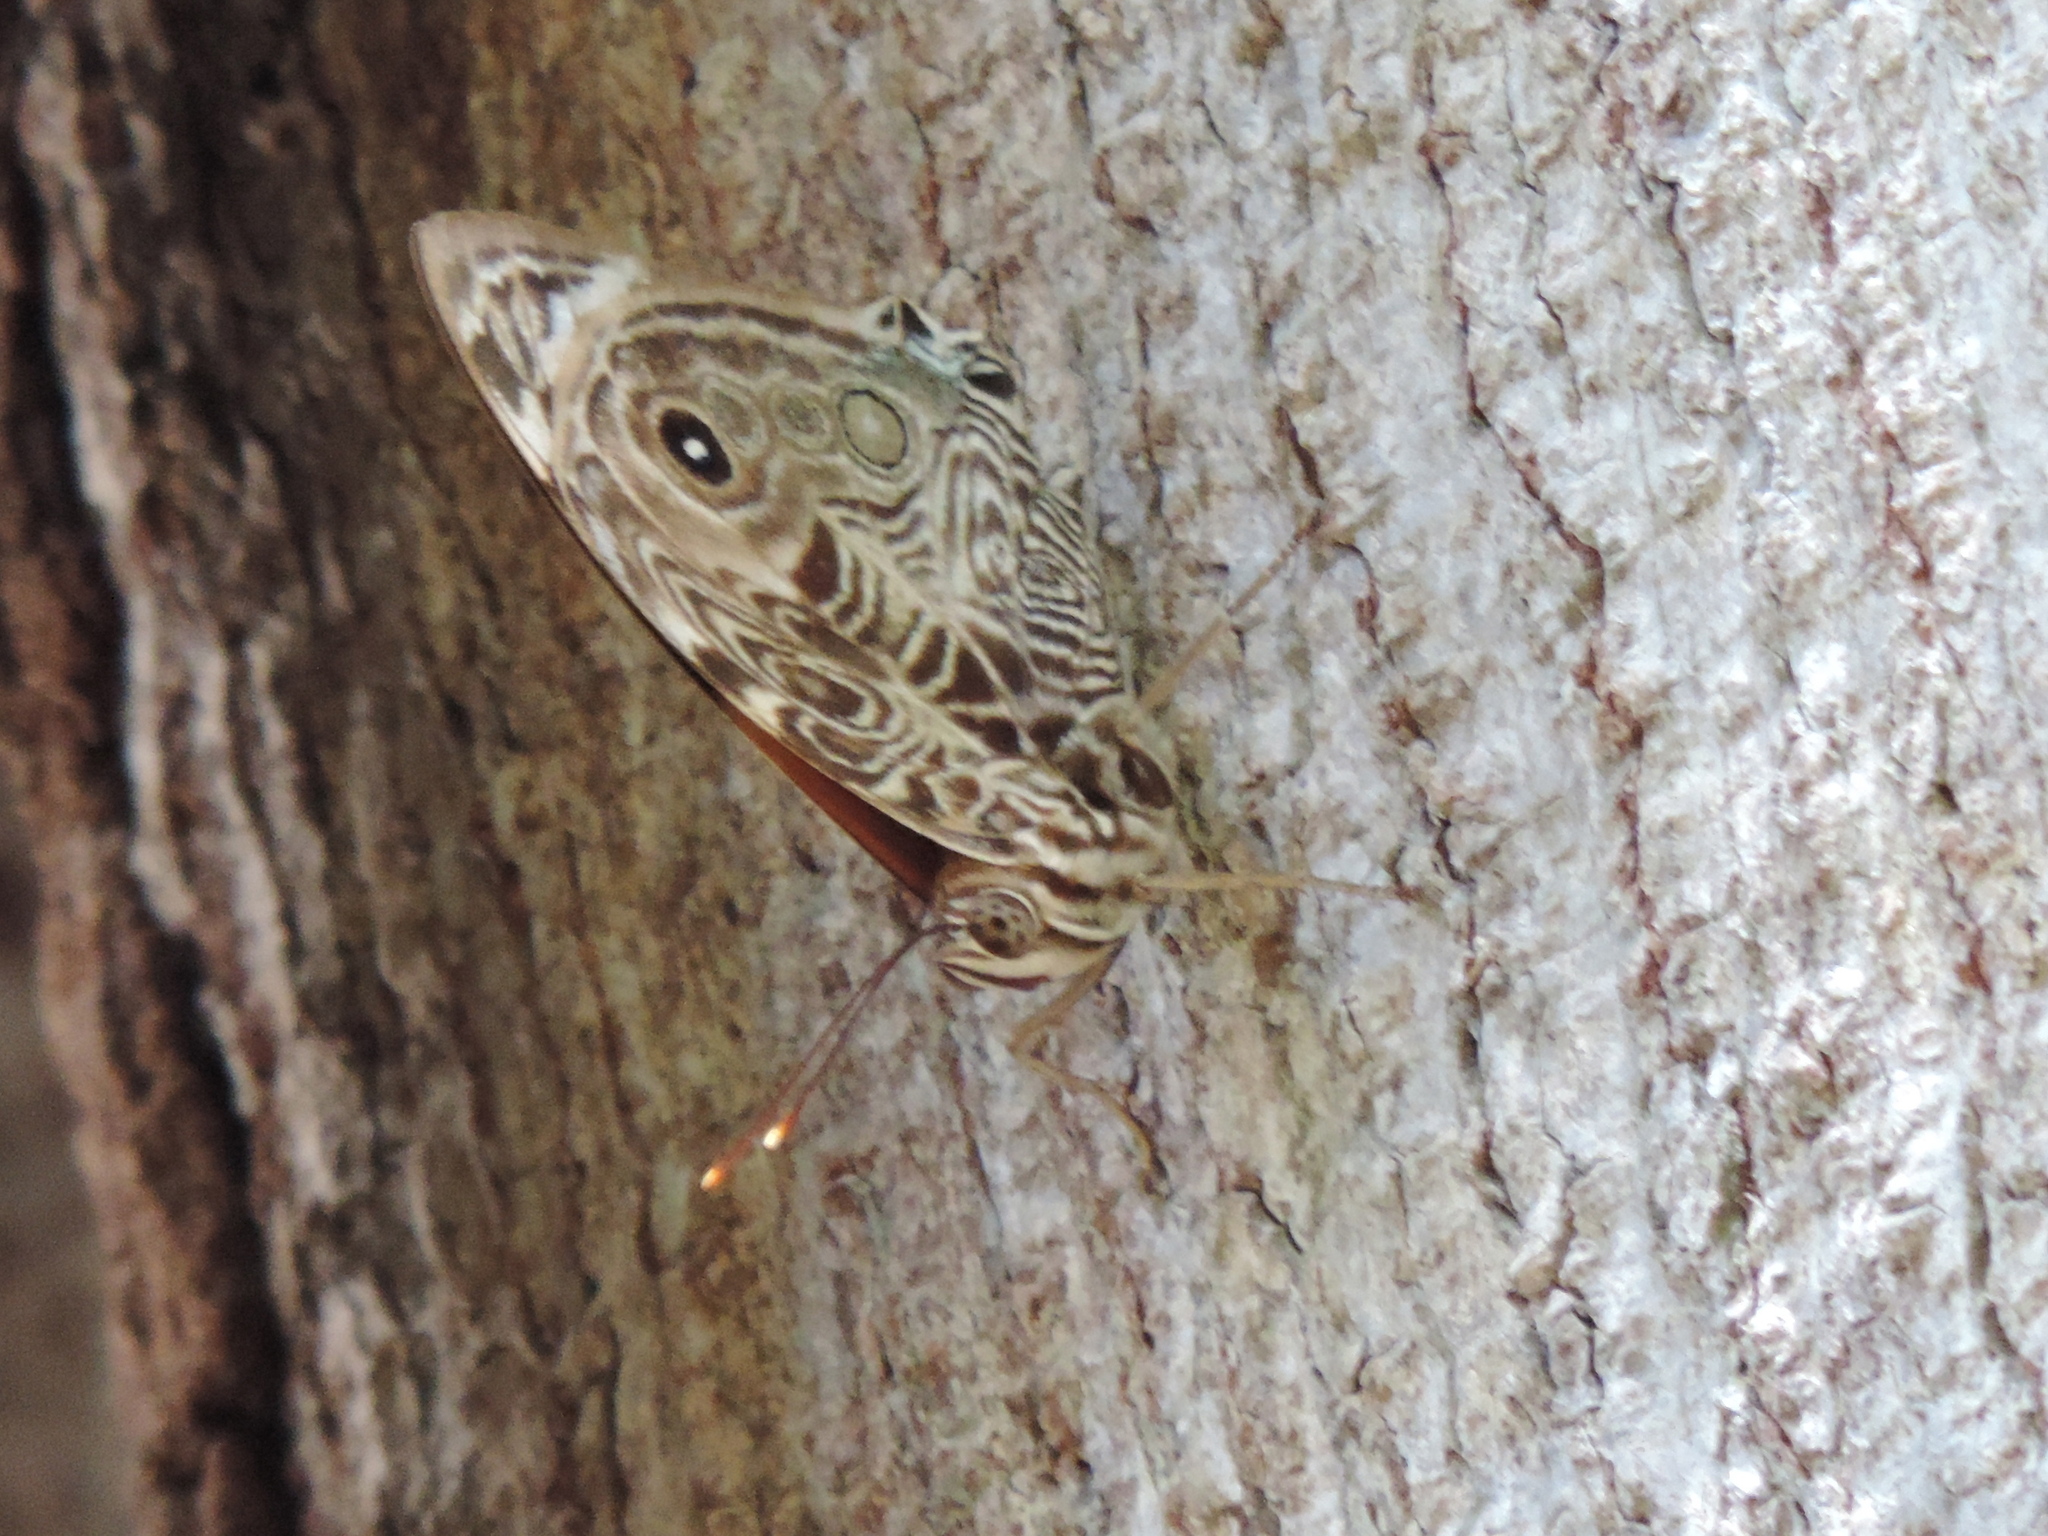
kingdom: Animalia
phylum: Arthropoda
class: Insecta
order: Lepidoptera
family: Nymphalidae
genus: Smyrna
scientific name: Smyrna blomfildia
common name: Blomfild's beauty
